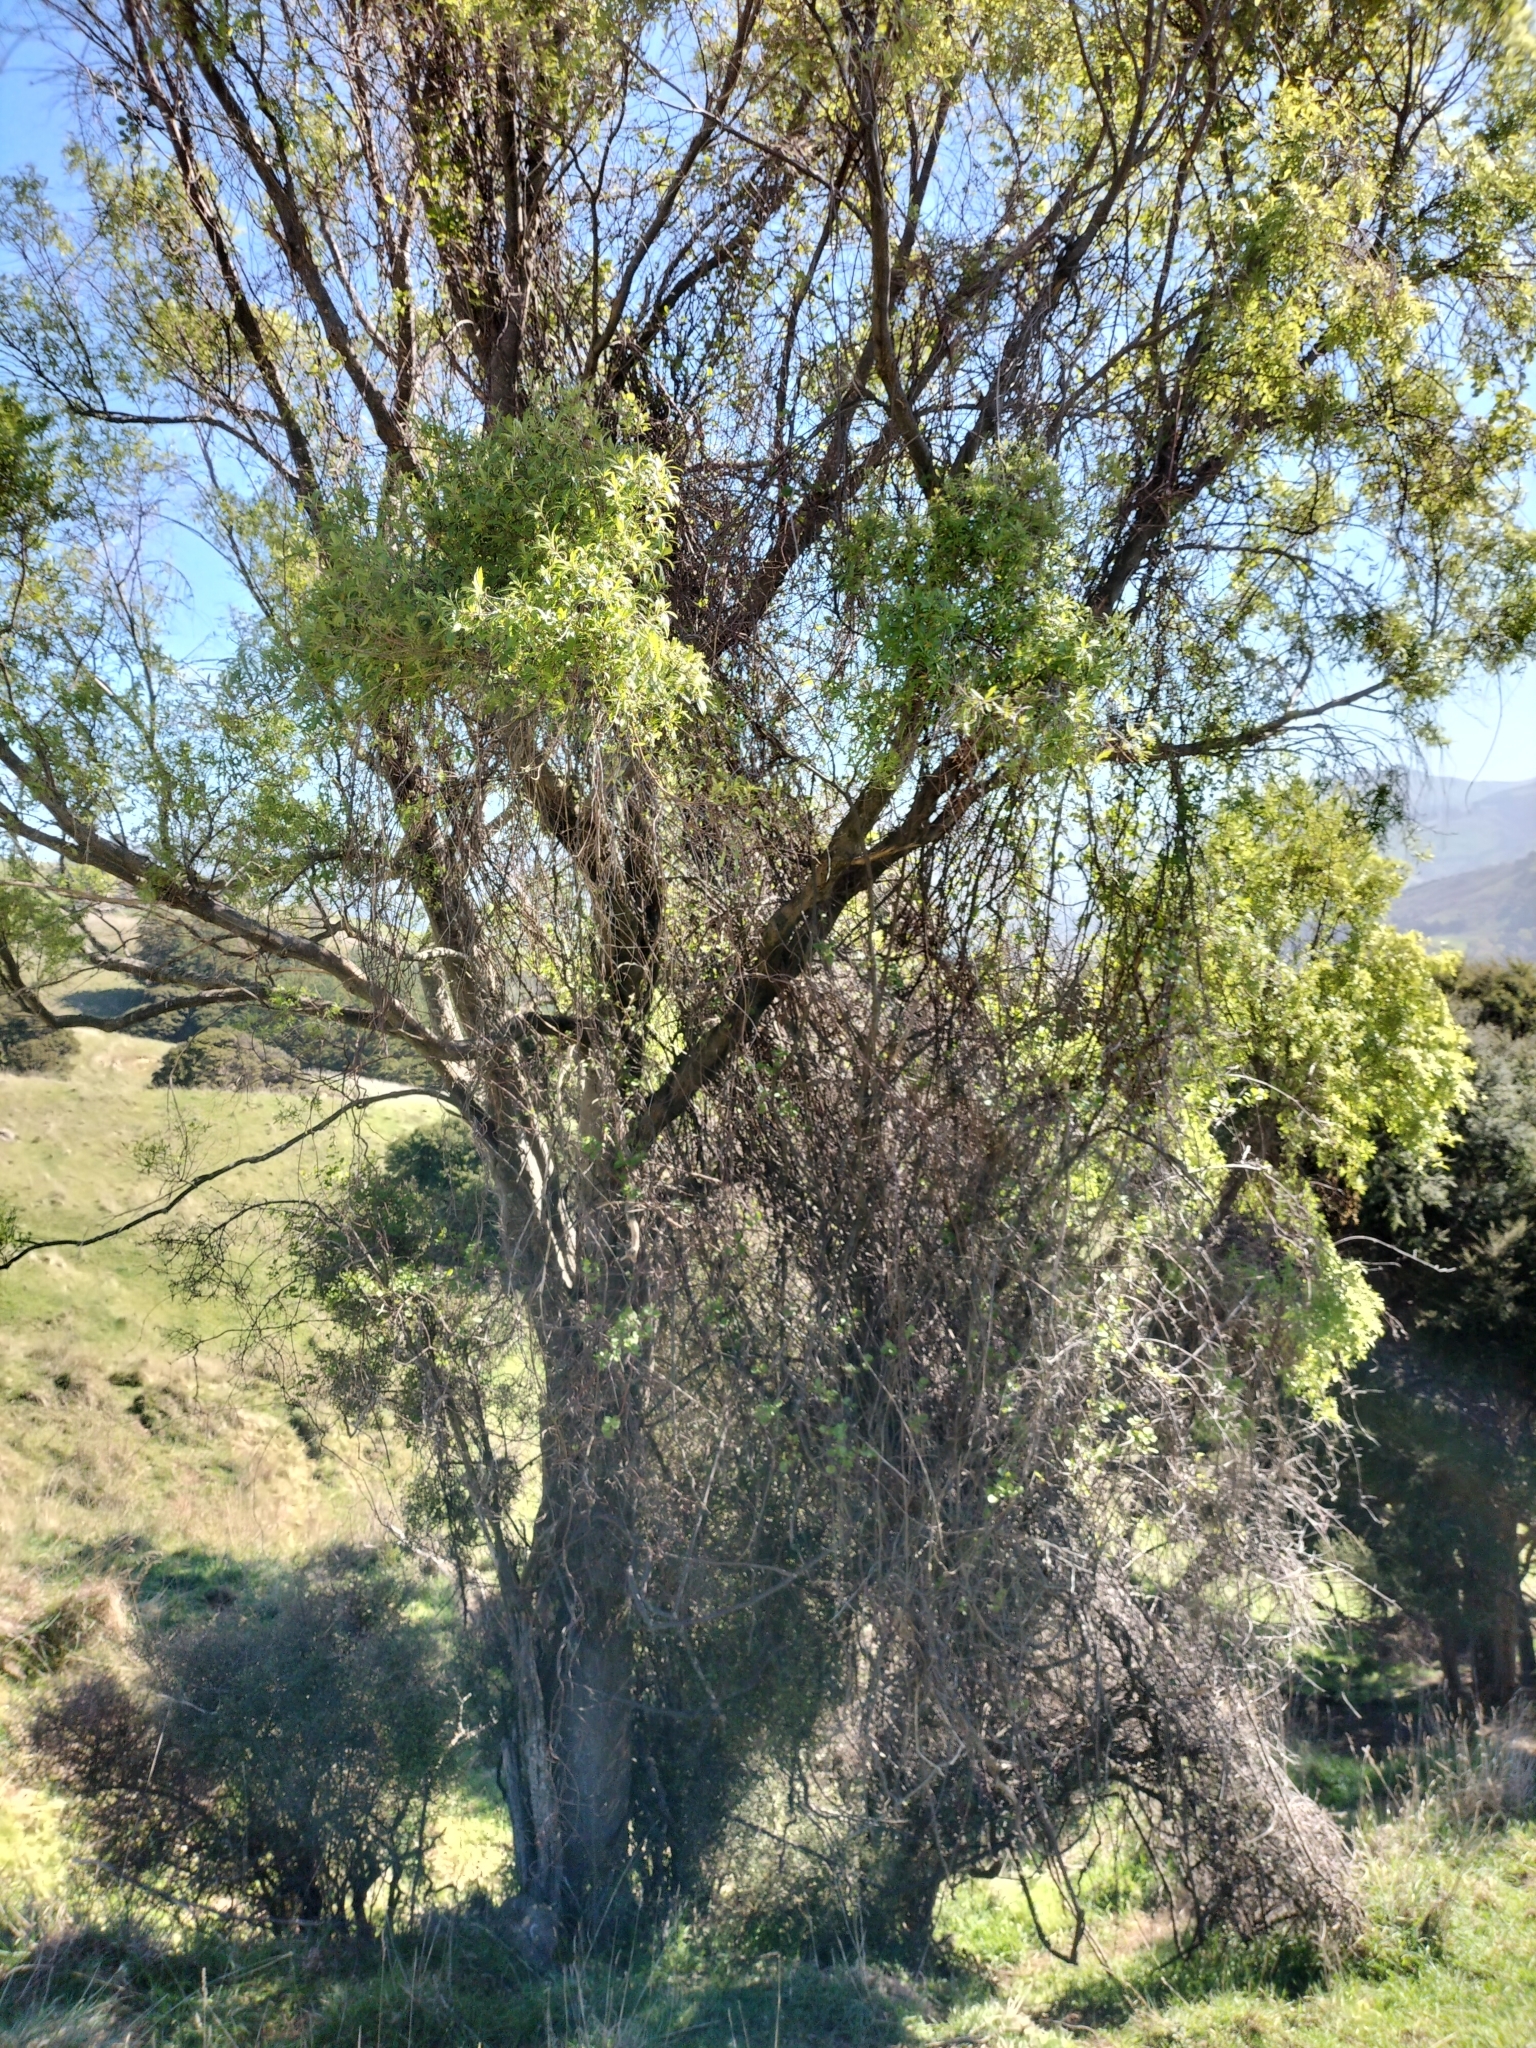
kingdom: Plantae
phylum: Tracheophyta
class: Magnoliopsida
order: Malvales
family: Malvaceae
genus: Hoheria
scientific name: Hoheria angustifolia
